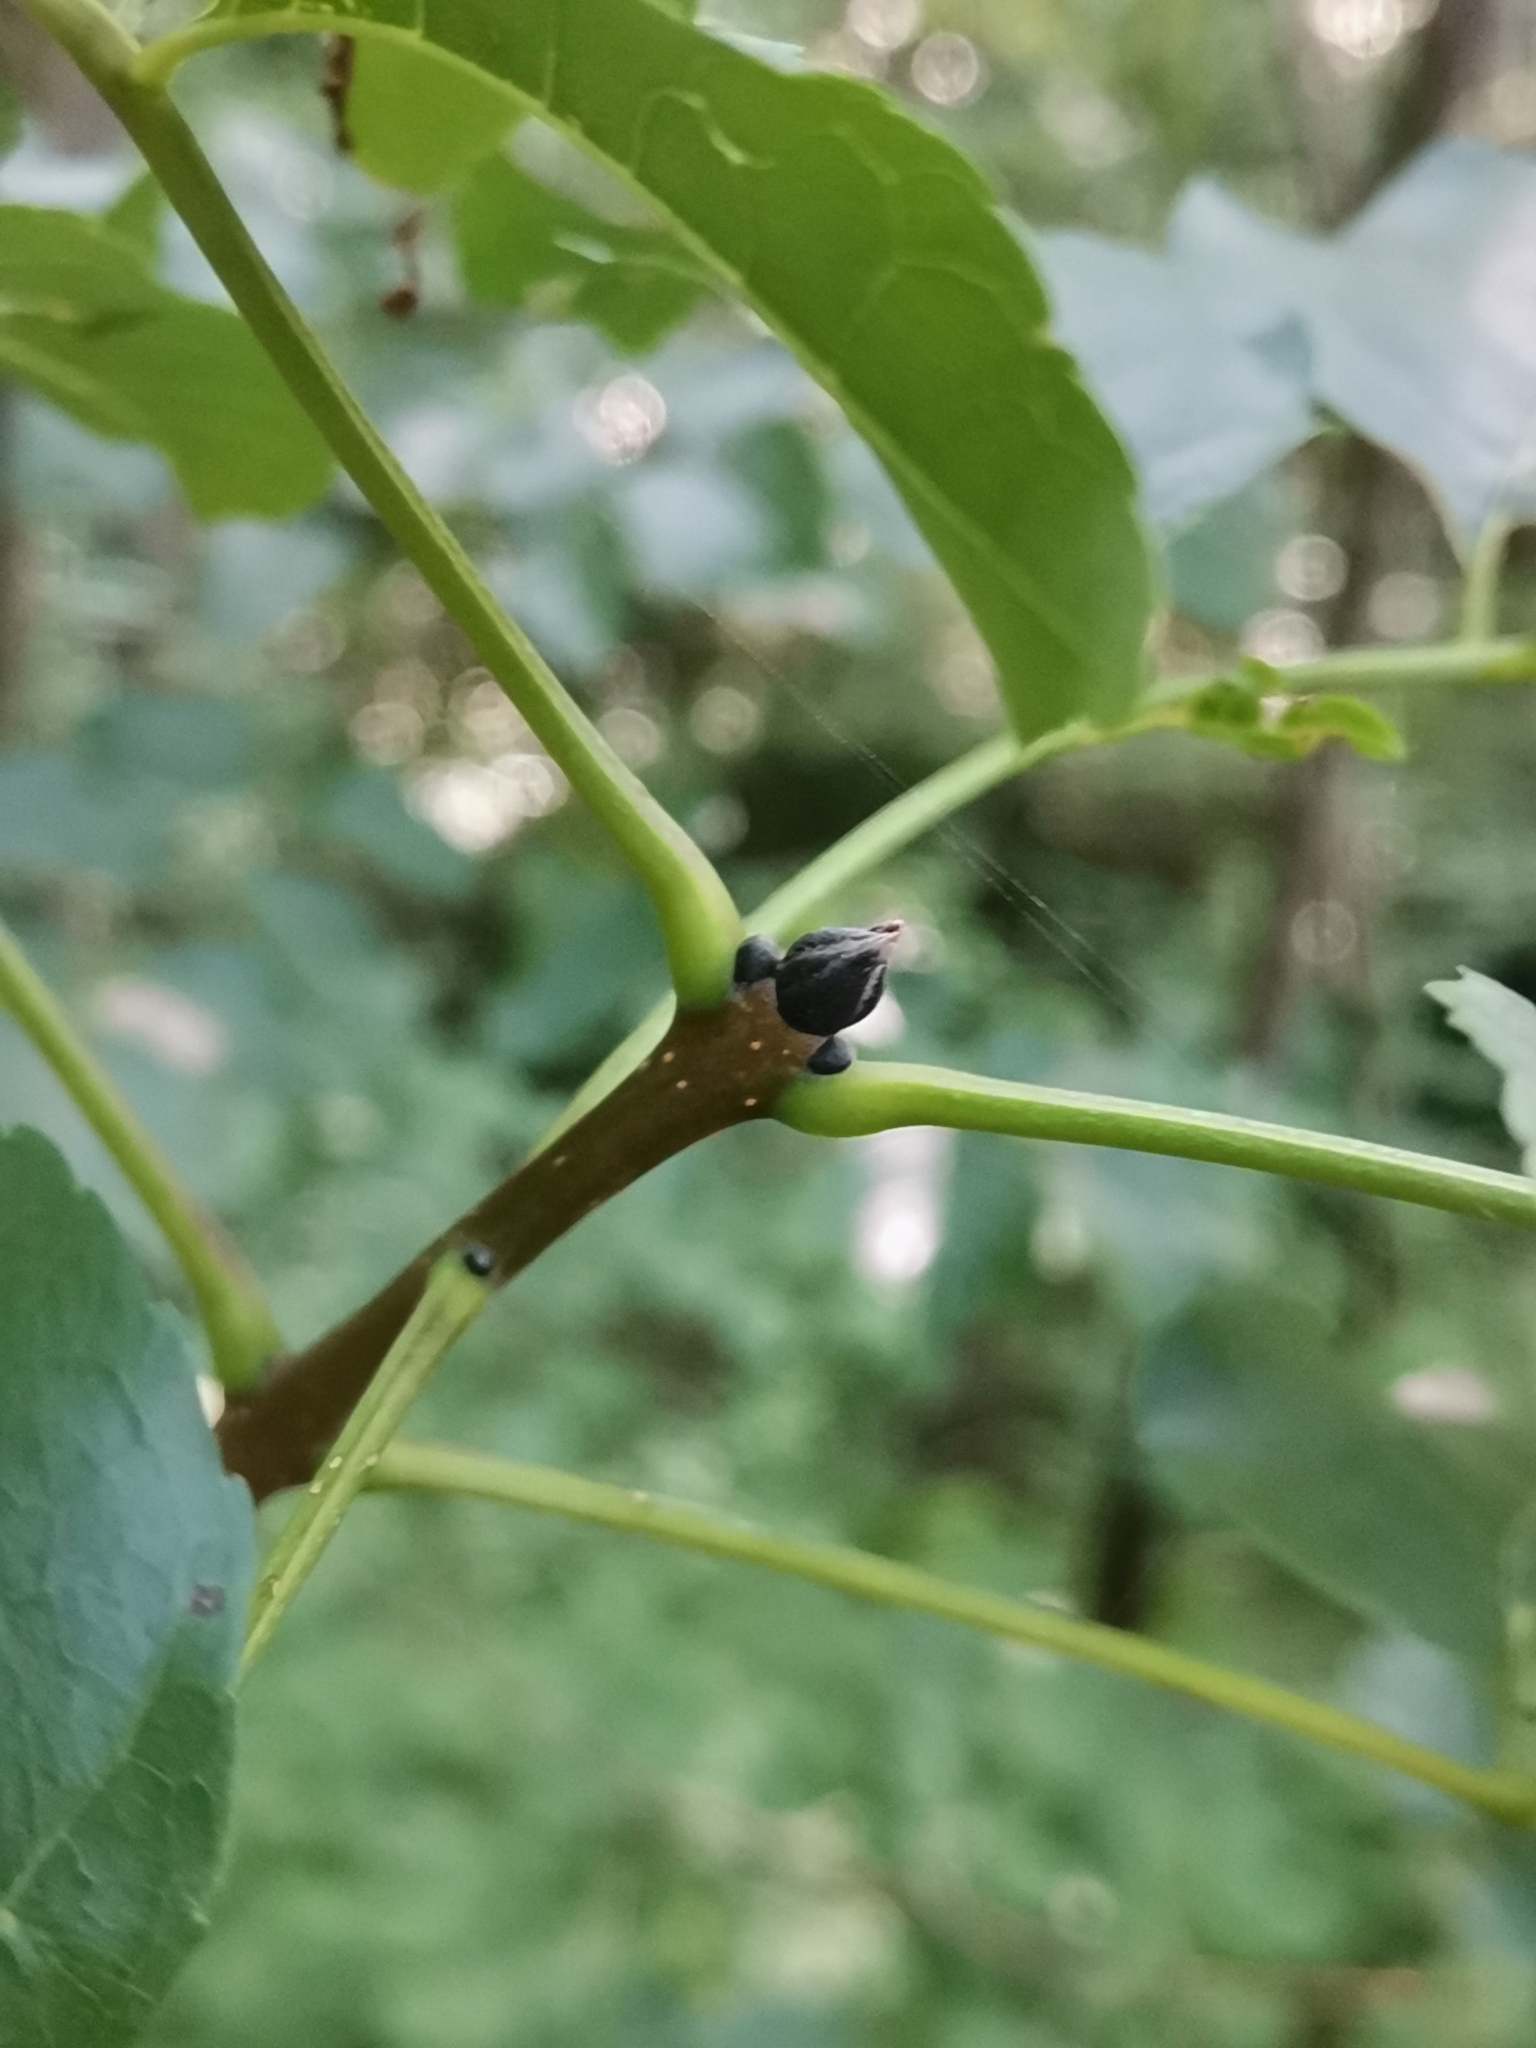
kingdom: Plantae
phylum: Tracheophyta
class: Magnoliopsida
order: Lamiales
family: Oleaceae
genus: Fraxinus
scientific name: Fraxinus ornus
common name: Manna ash
